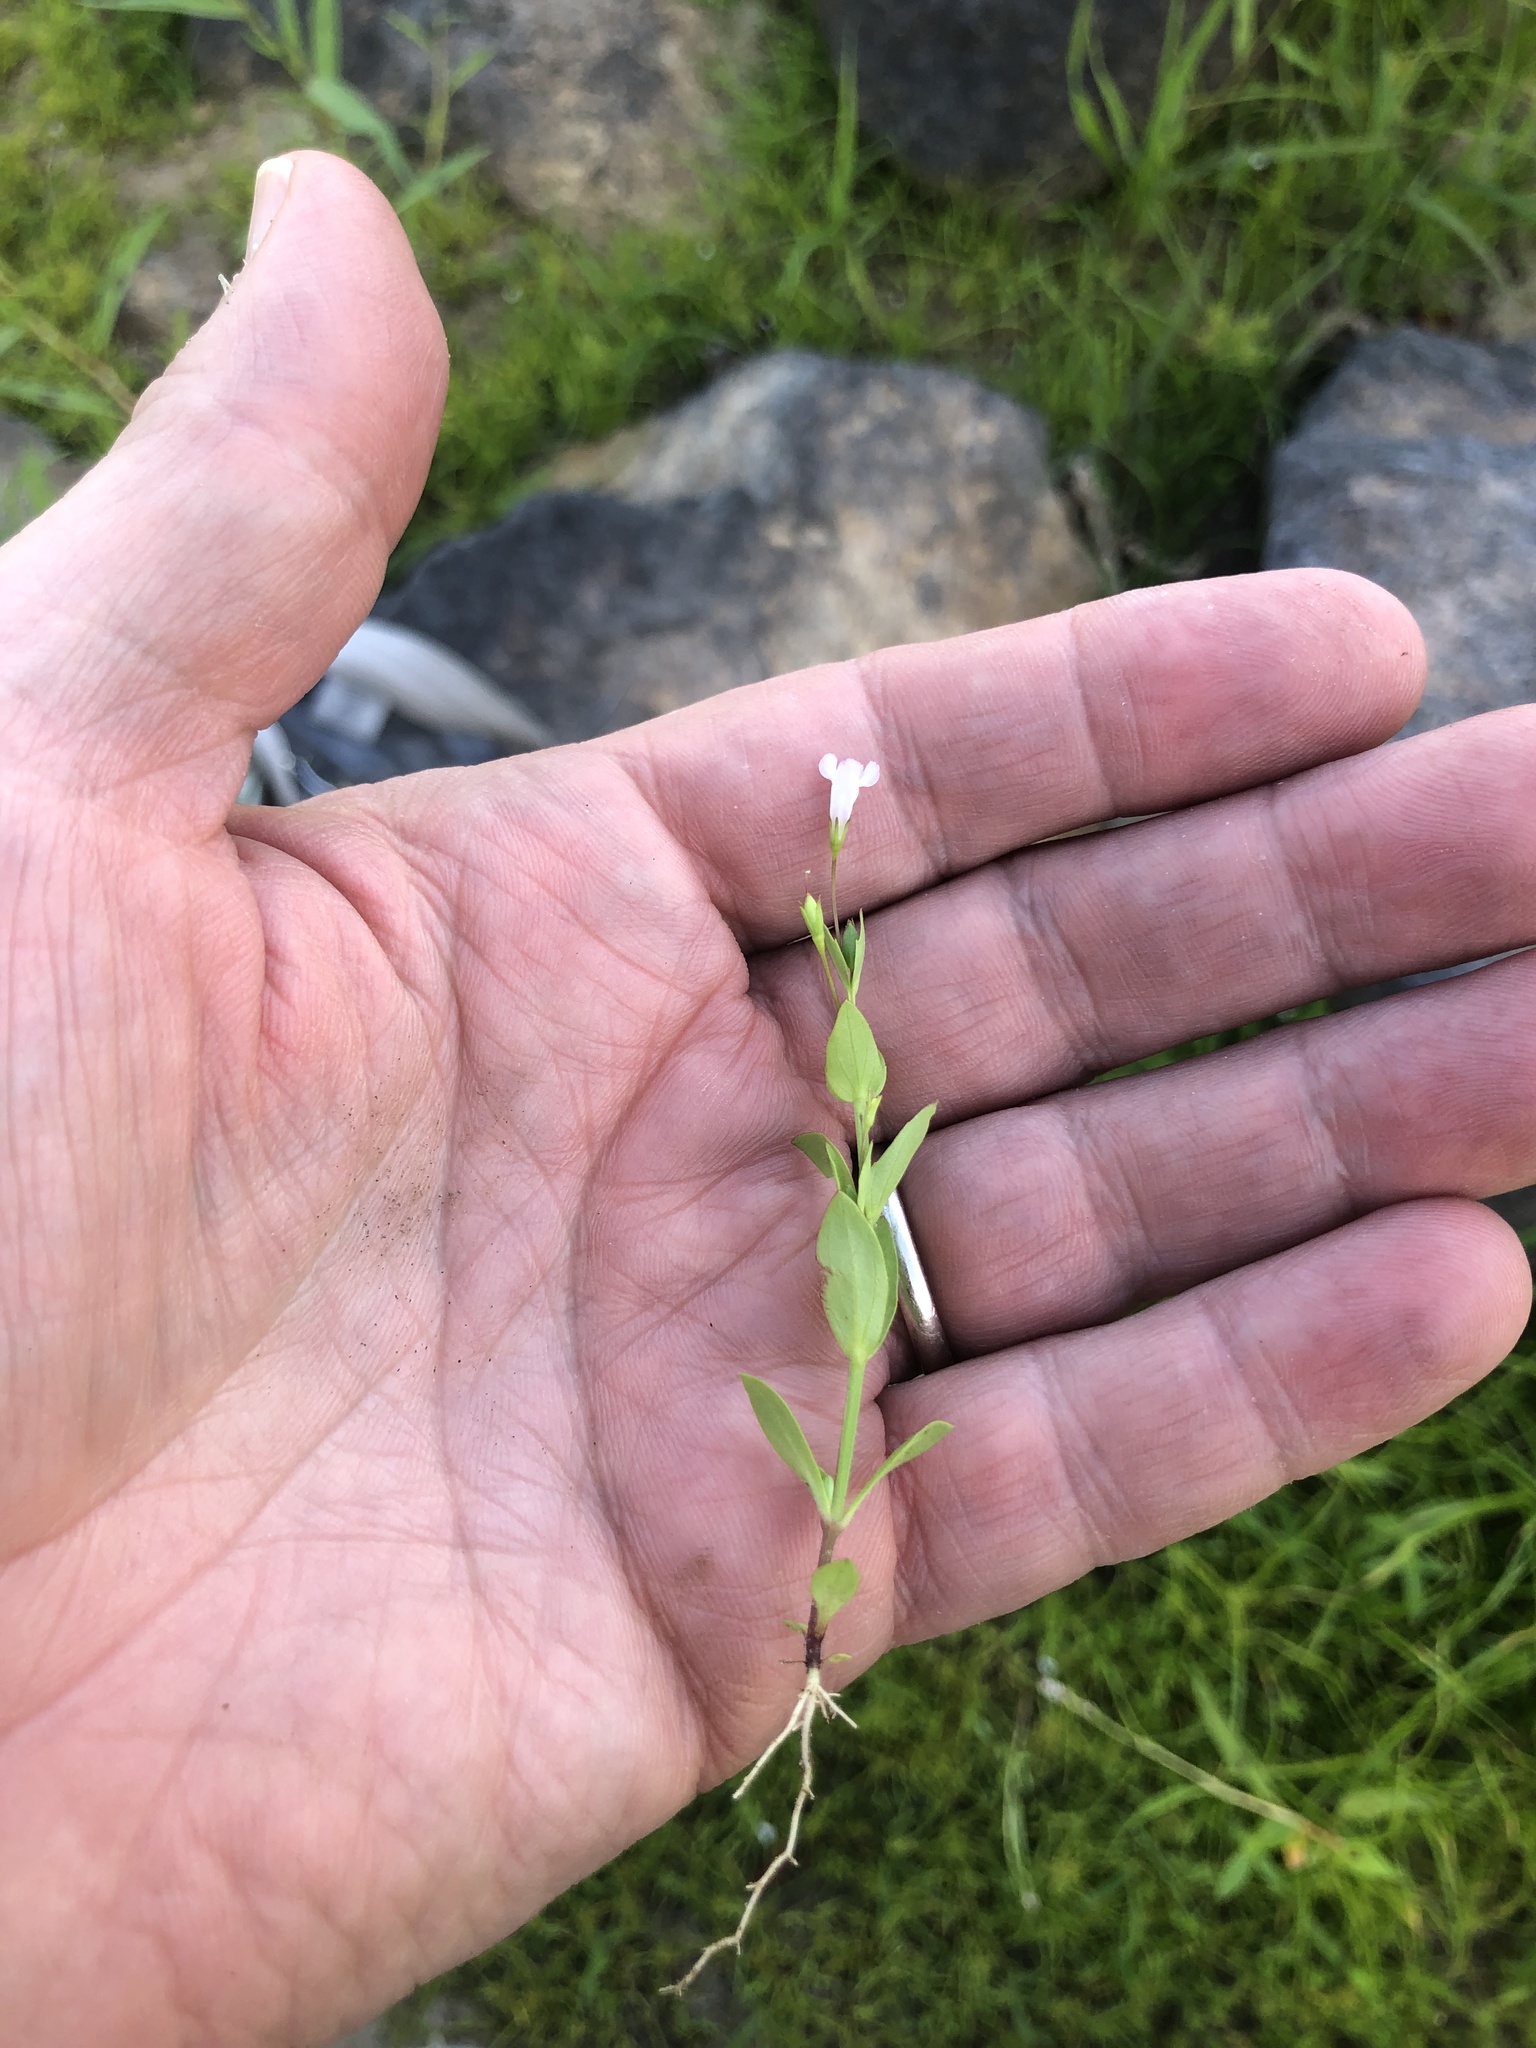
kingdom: Plantae
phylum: Tracheophyta
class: Magnoliopsida
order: Lamiales
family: Linderniaceae
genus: Lindernia
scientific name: Lindernia dubia
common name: Annual false pimpernel
